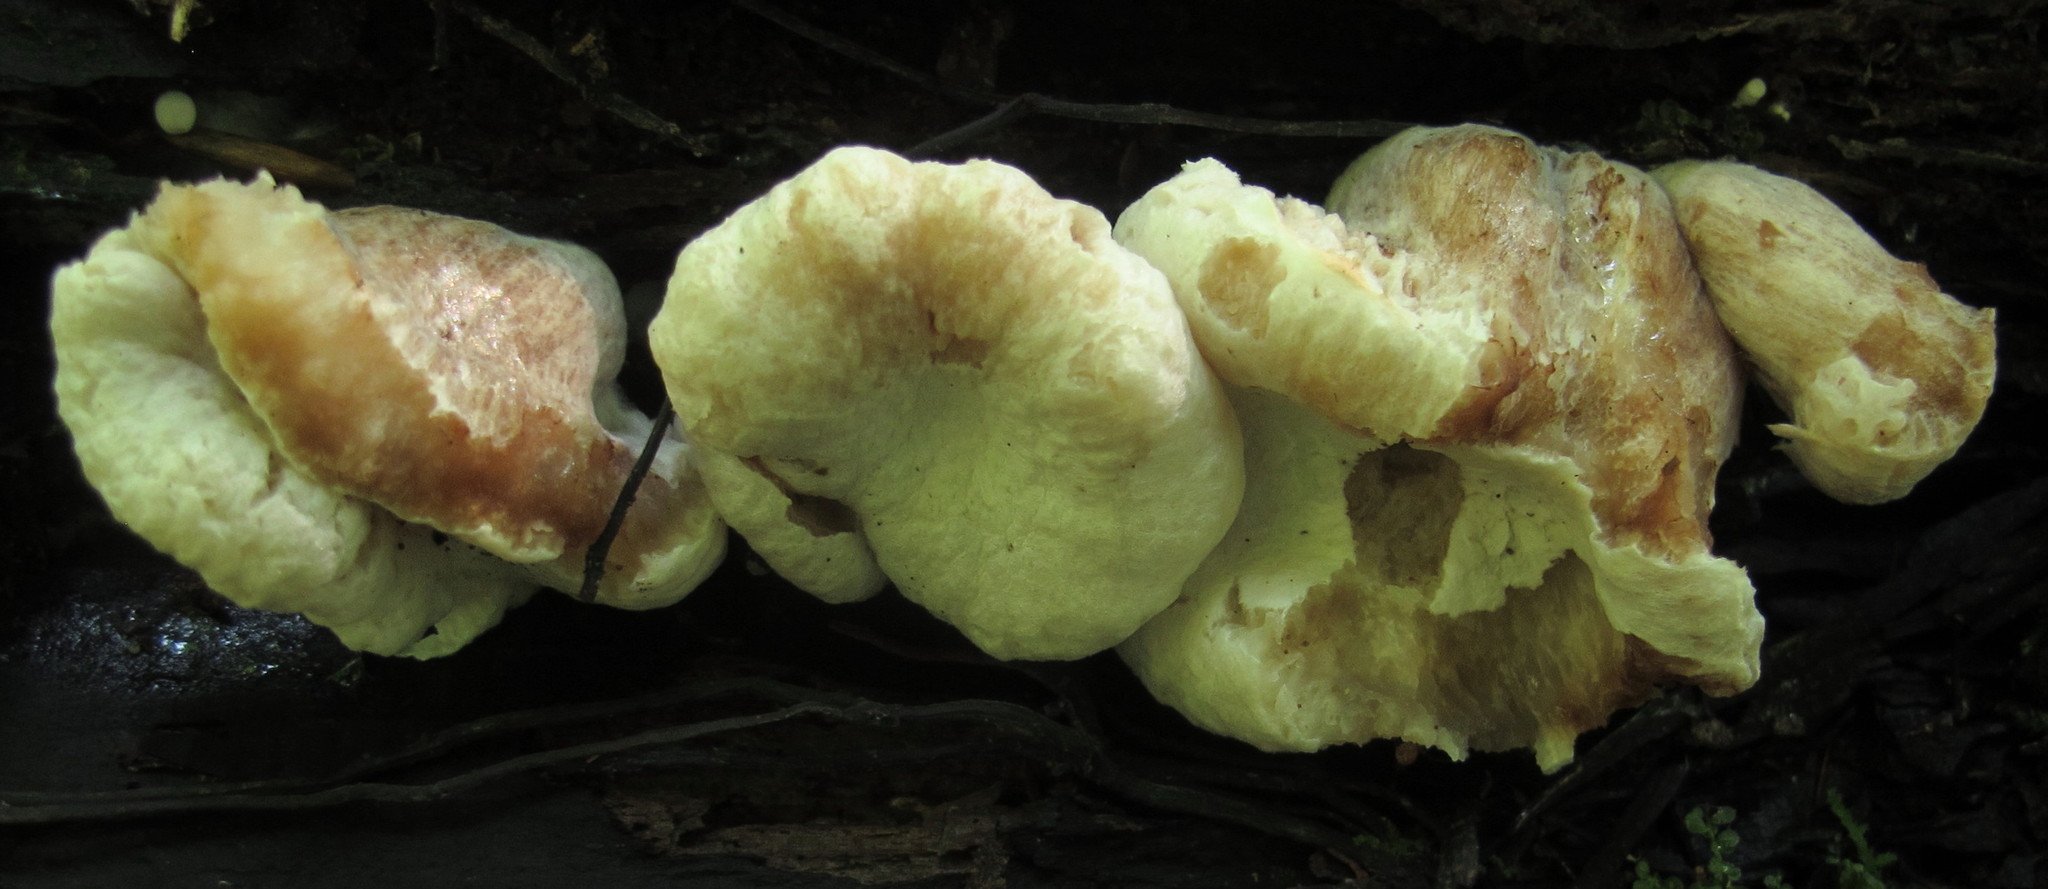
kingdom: Fungi
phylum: Basidiomycota
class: Agaricomycetes
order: Agaricales
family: Entolomataceae
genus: Entoloma
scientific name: Entoloma abortivum
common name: Aborted entoloma
